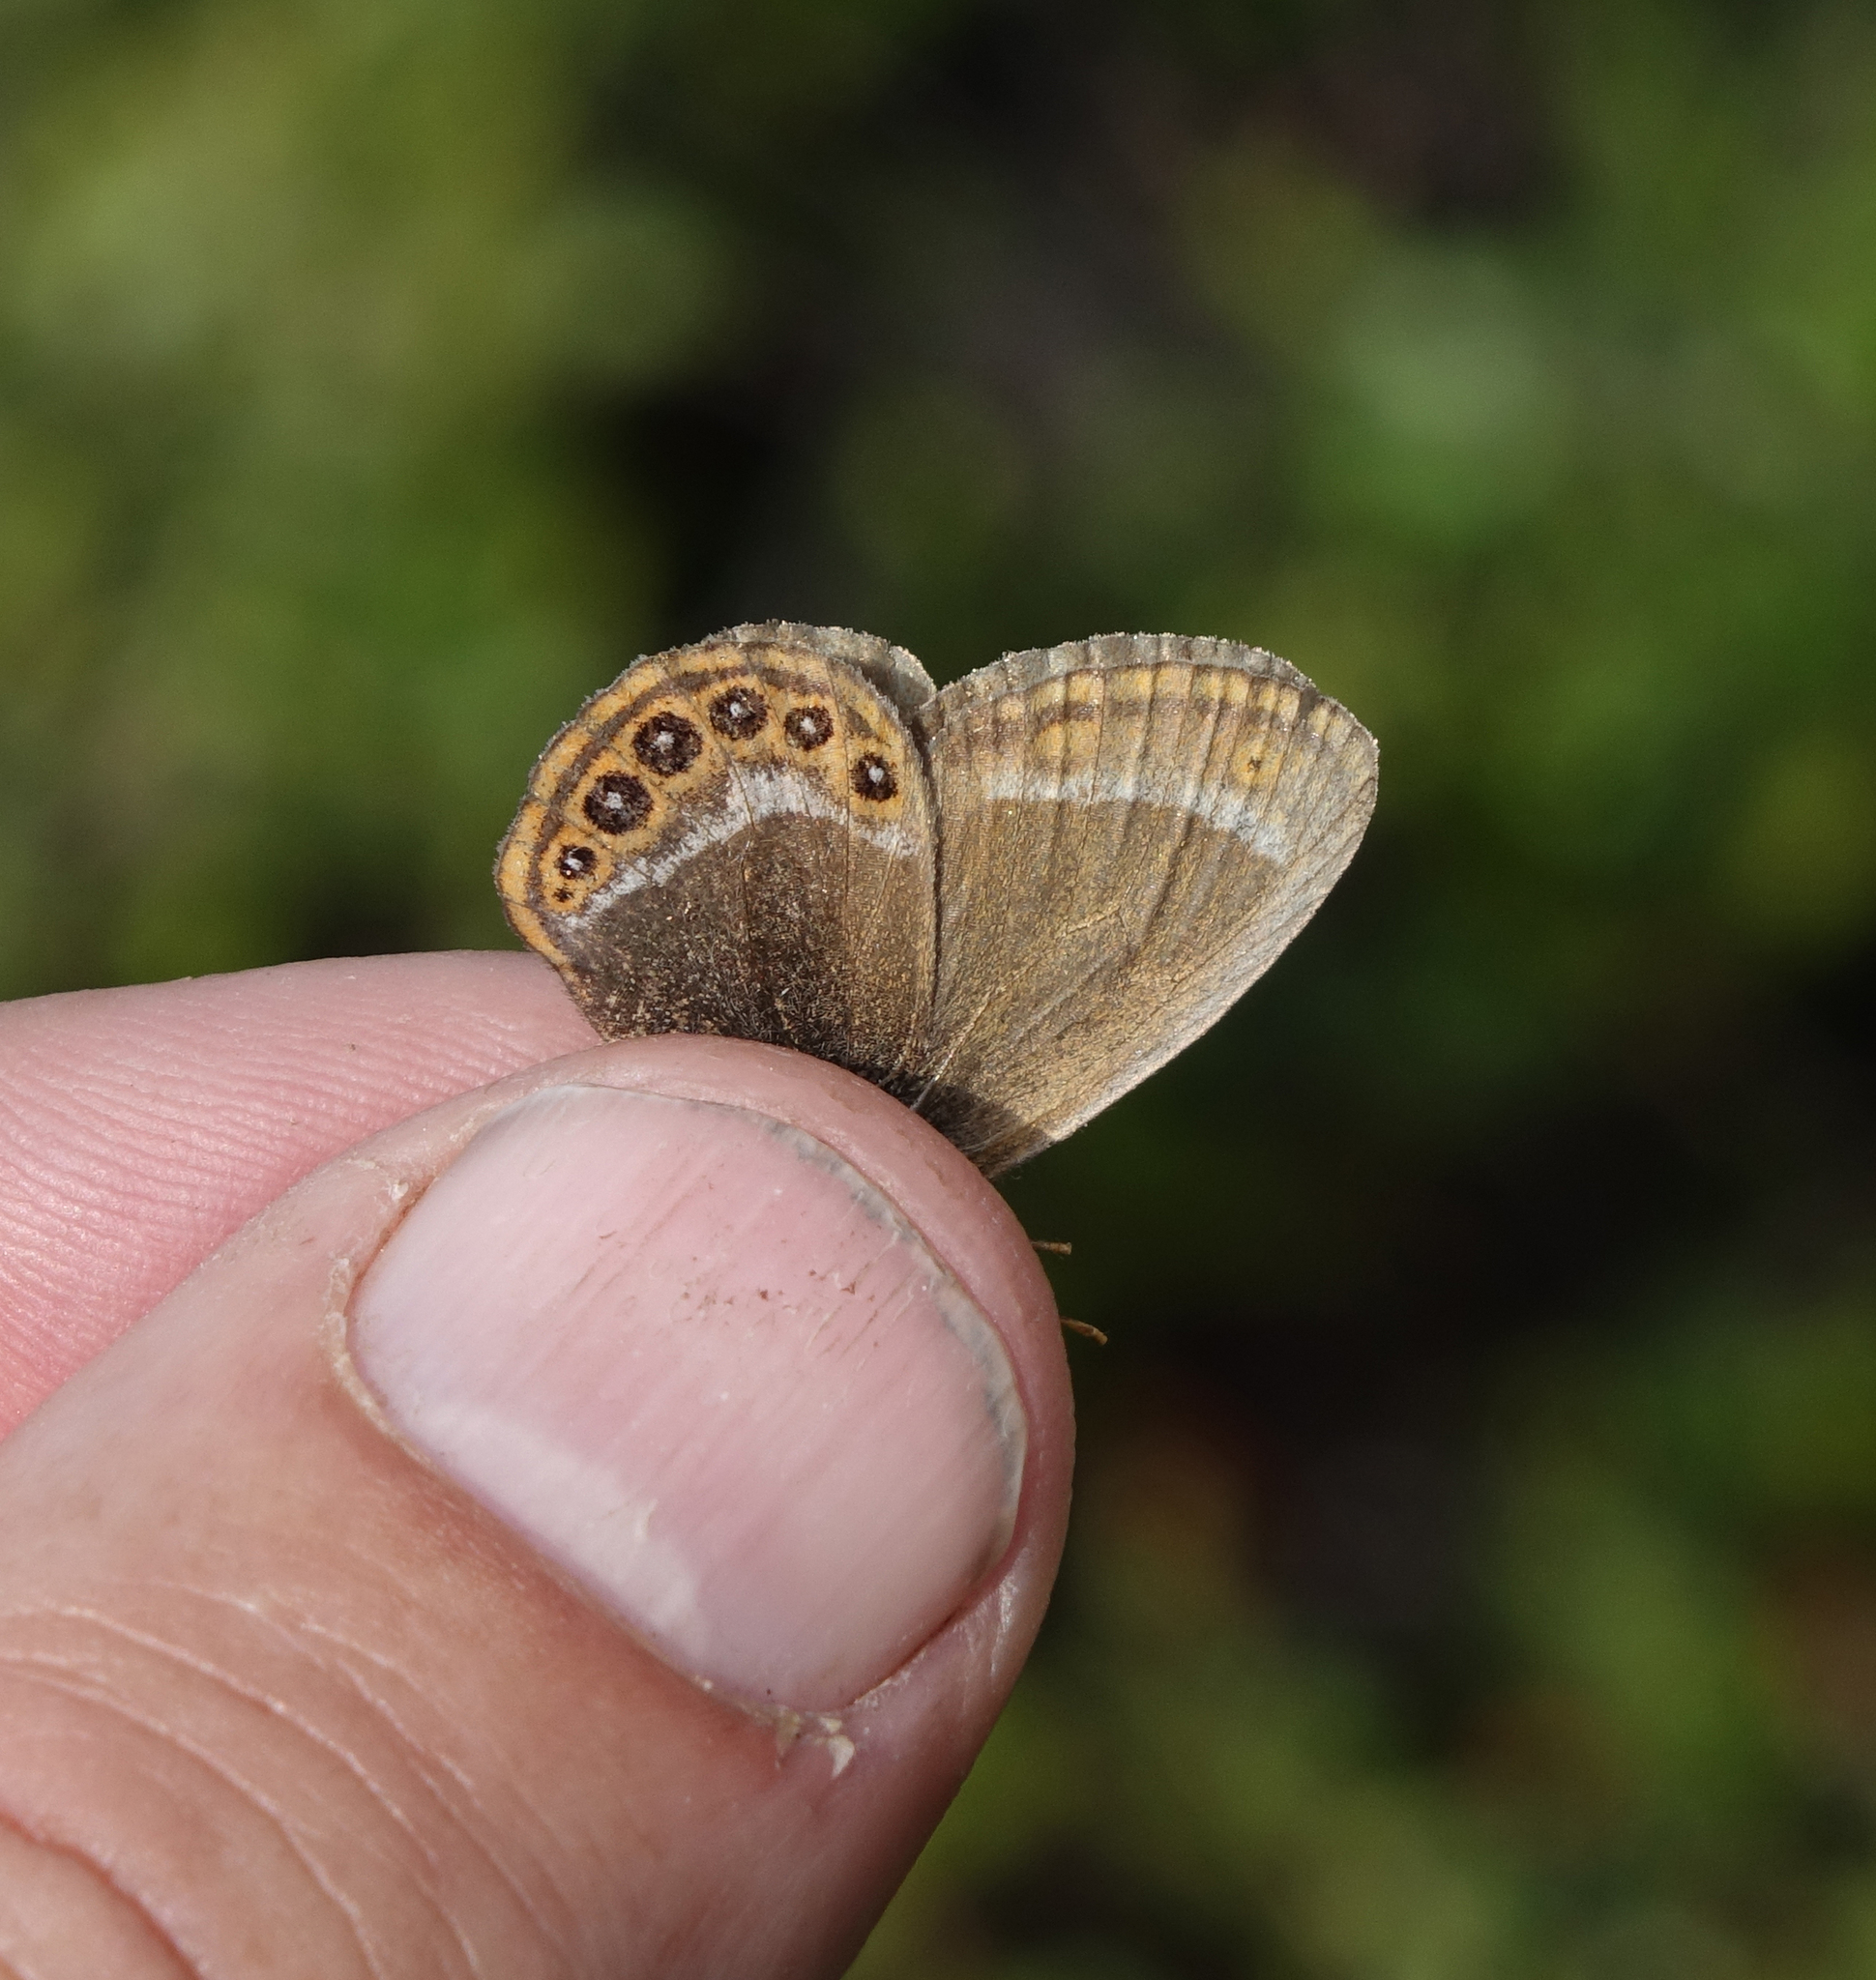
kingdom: Animalia
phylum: Arthropoda
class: Insecta
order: Lepidoptera
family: Nymphalidae
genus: Coenonympha
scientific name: Coenonympha hero
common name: Scarce heath
